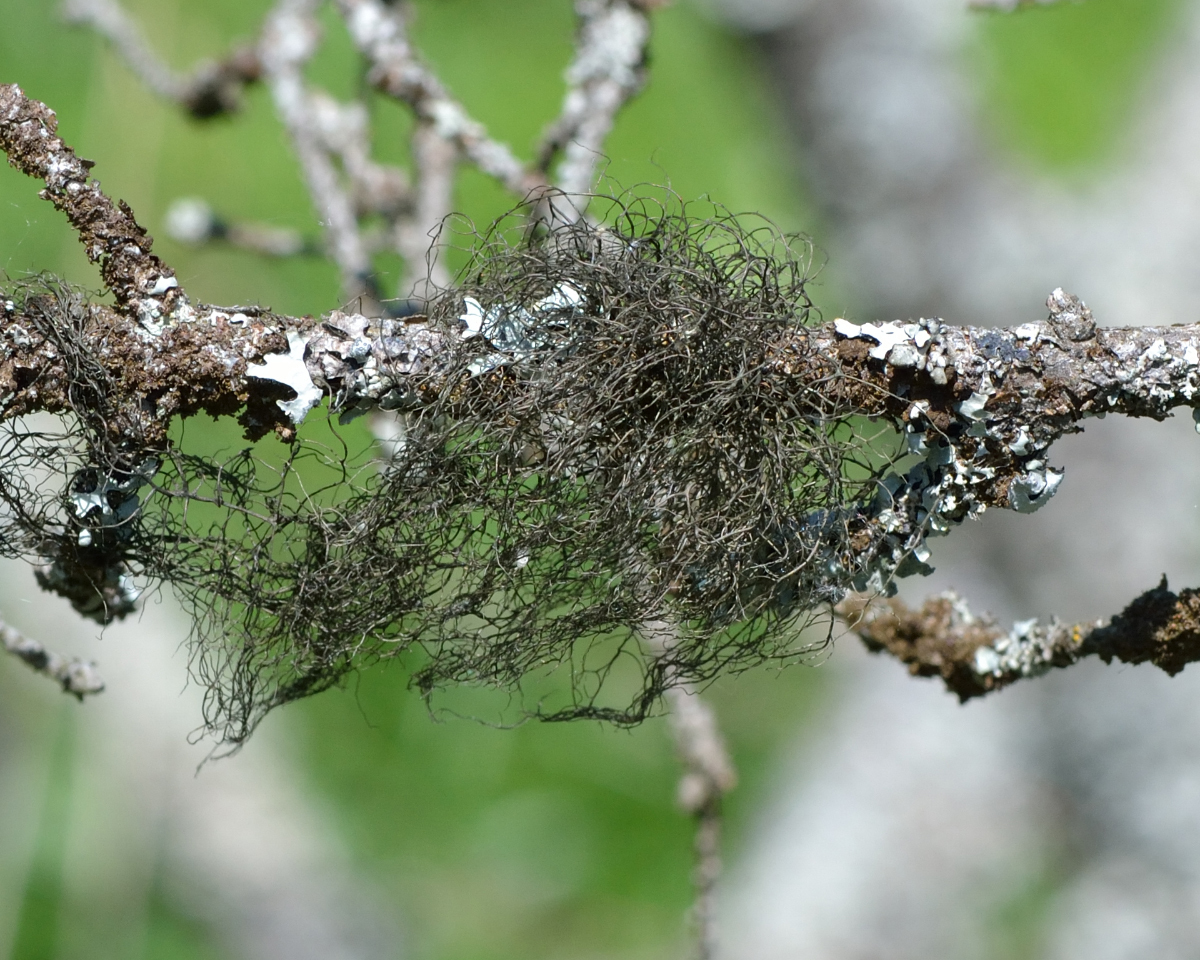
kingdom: Fungi
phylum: Ascomycota
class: Lecanoromycetes
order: Lecanorales
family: Parmeliaceae
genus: Bryoria
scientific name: Bryoria fuscescens
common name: Pale-footed horsehair lichen
